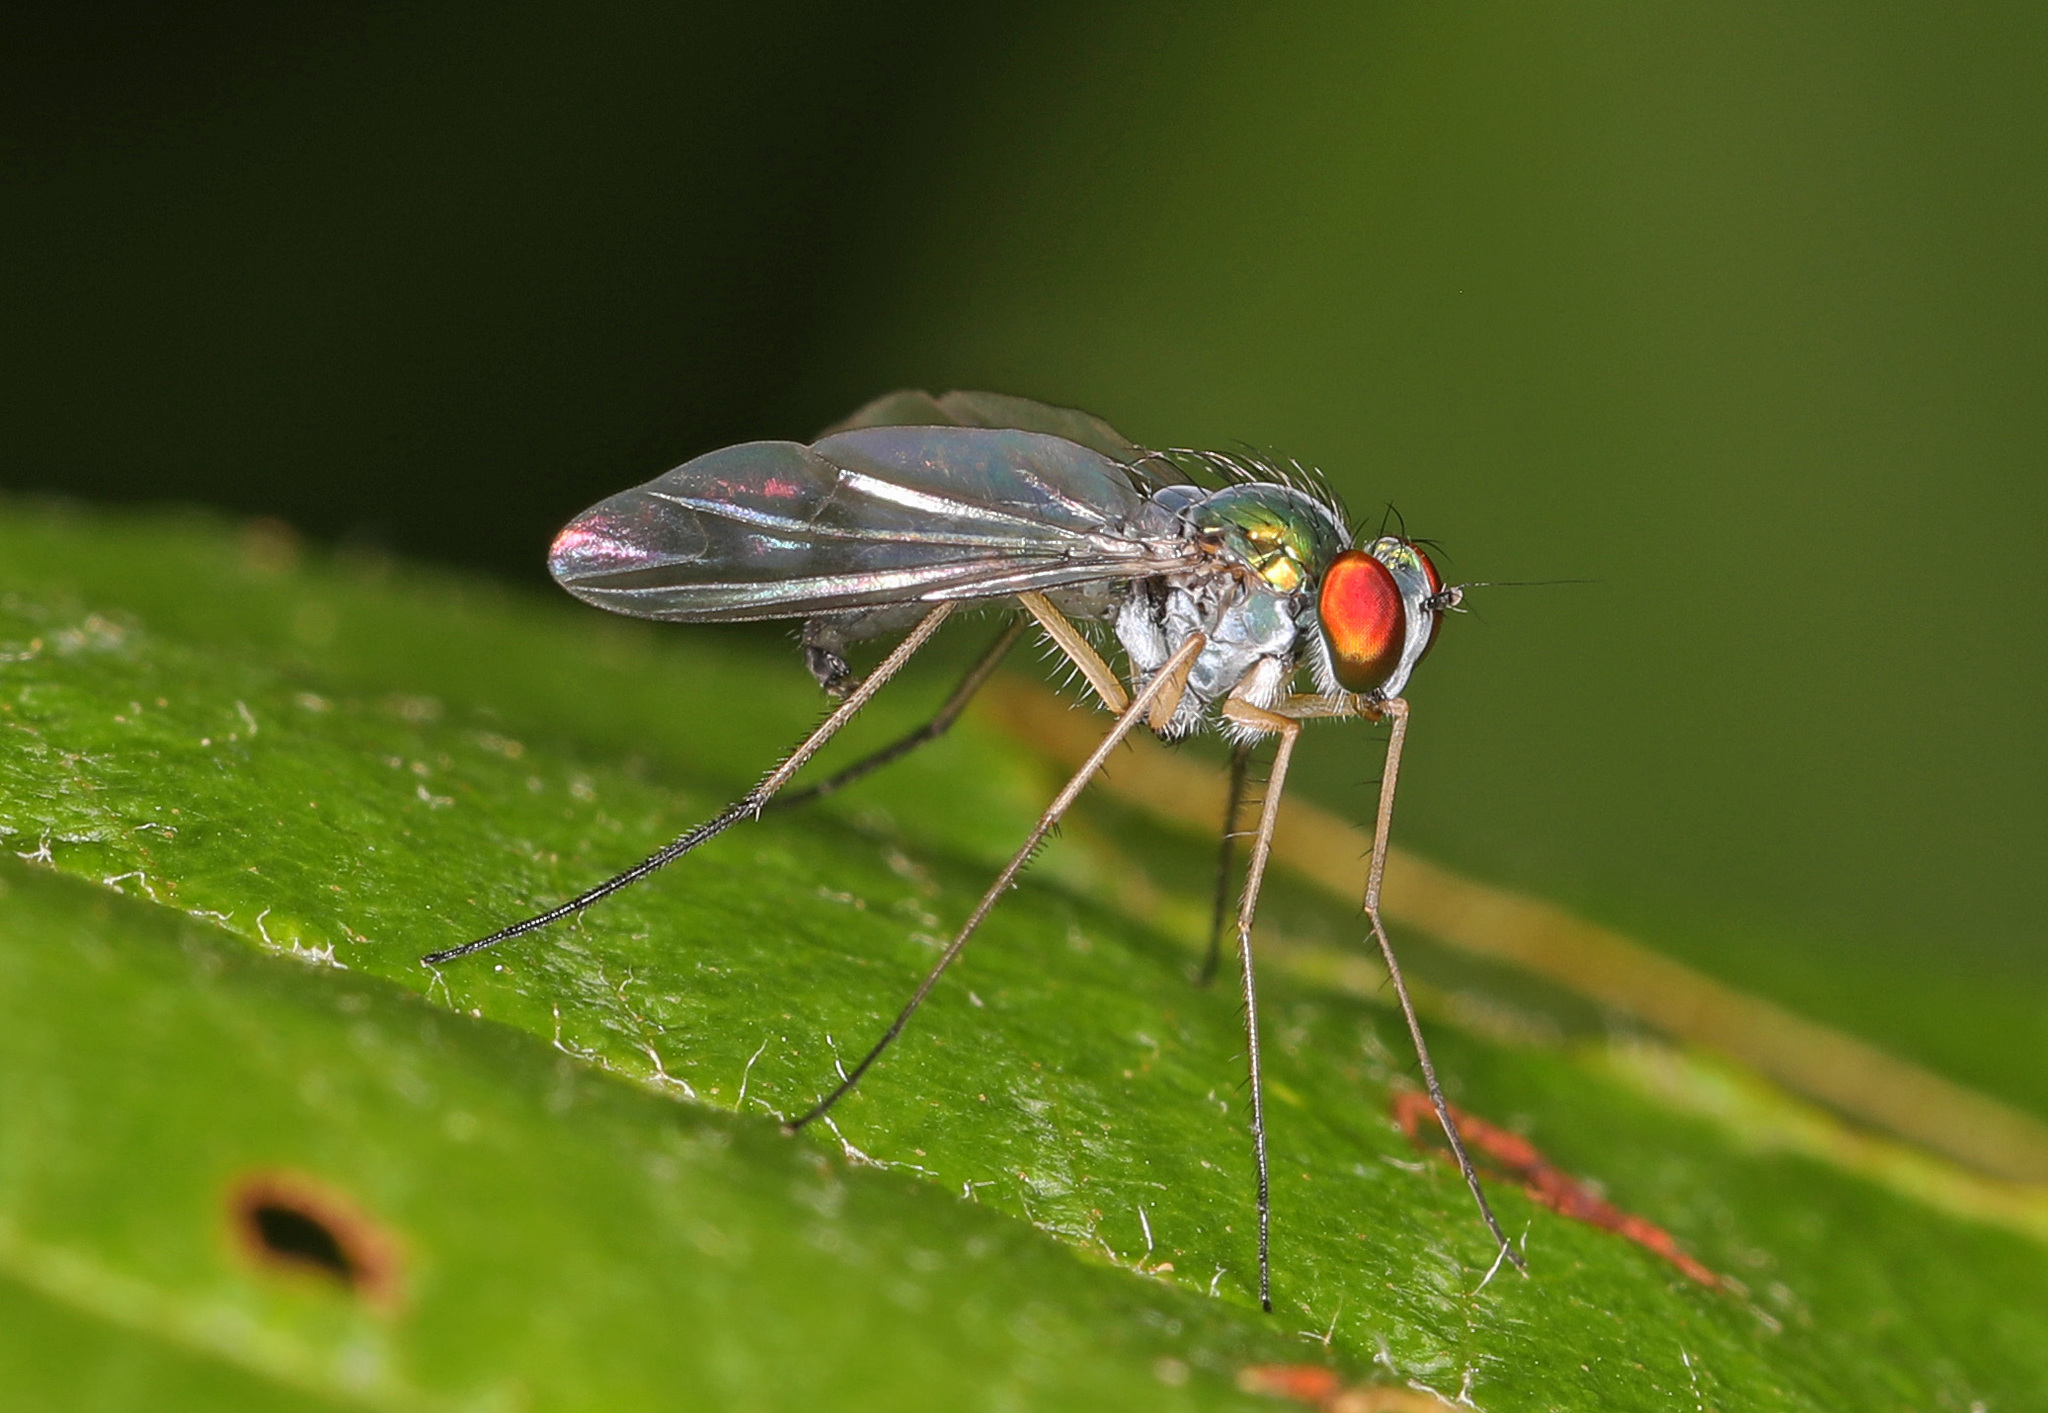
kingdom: Animalia
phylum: Arthropoda
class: Insecta
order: Diptera
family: Dolichopodidae
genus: Condylostylus
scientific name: Condylostylus brimleyi
